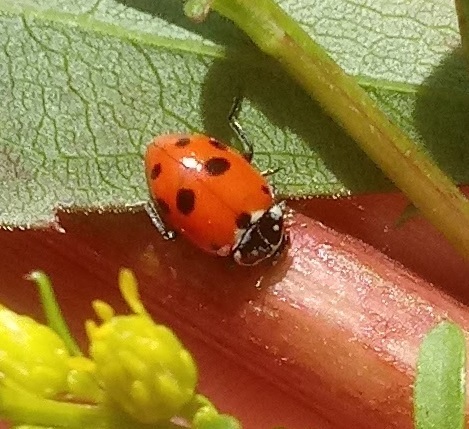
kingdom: Animalia
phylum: Arthropoda
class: Insecta
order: Coleoptera
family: Coccinellidae
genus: Hippodamia
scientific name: Hippodamia variegata
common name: Ladybird beetle
